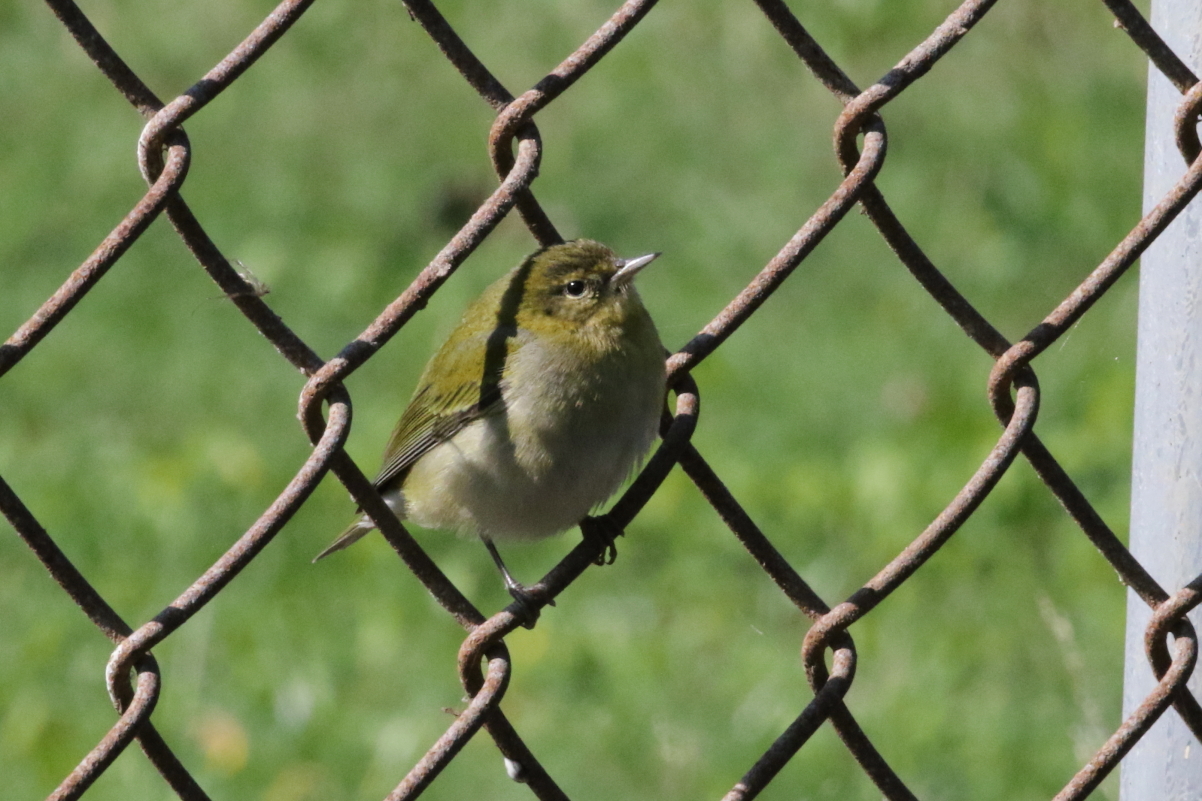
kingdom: Animalia
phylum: Chordata
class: Aves
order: Passeriformes
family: Parulidae
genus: Leiothlypis
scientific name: Leiothlypis peregrina
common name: Tennessee warbler
